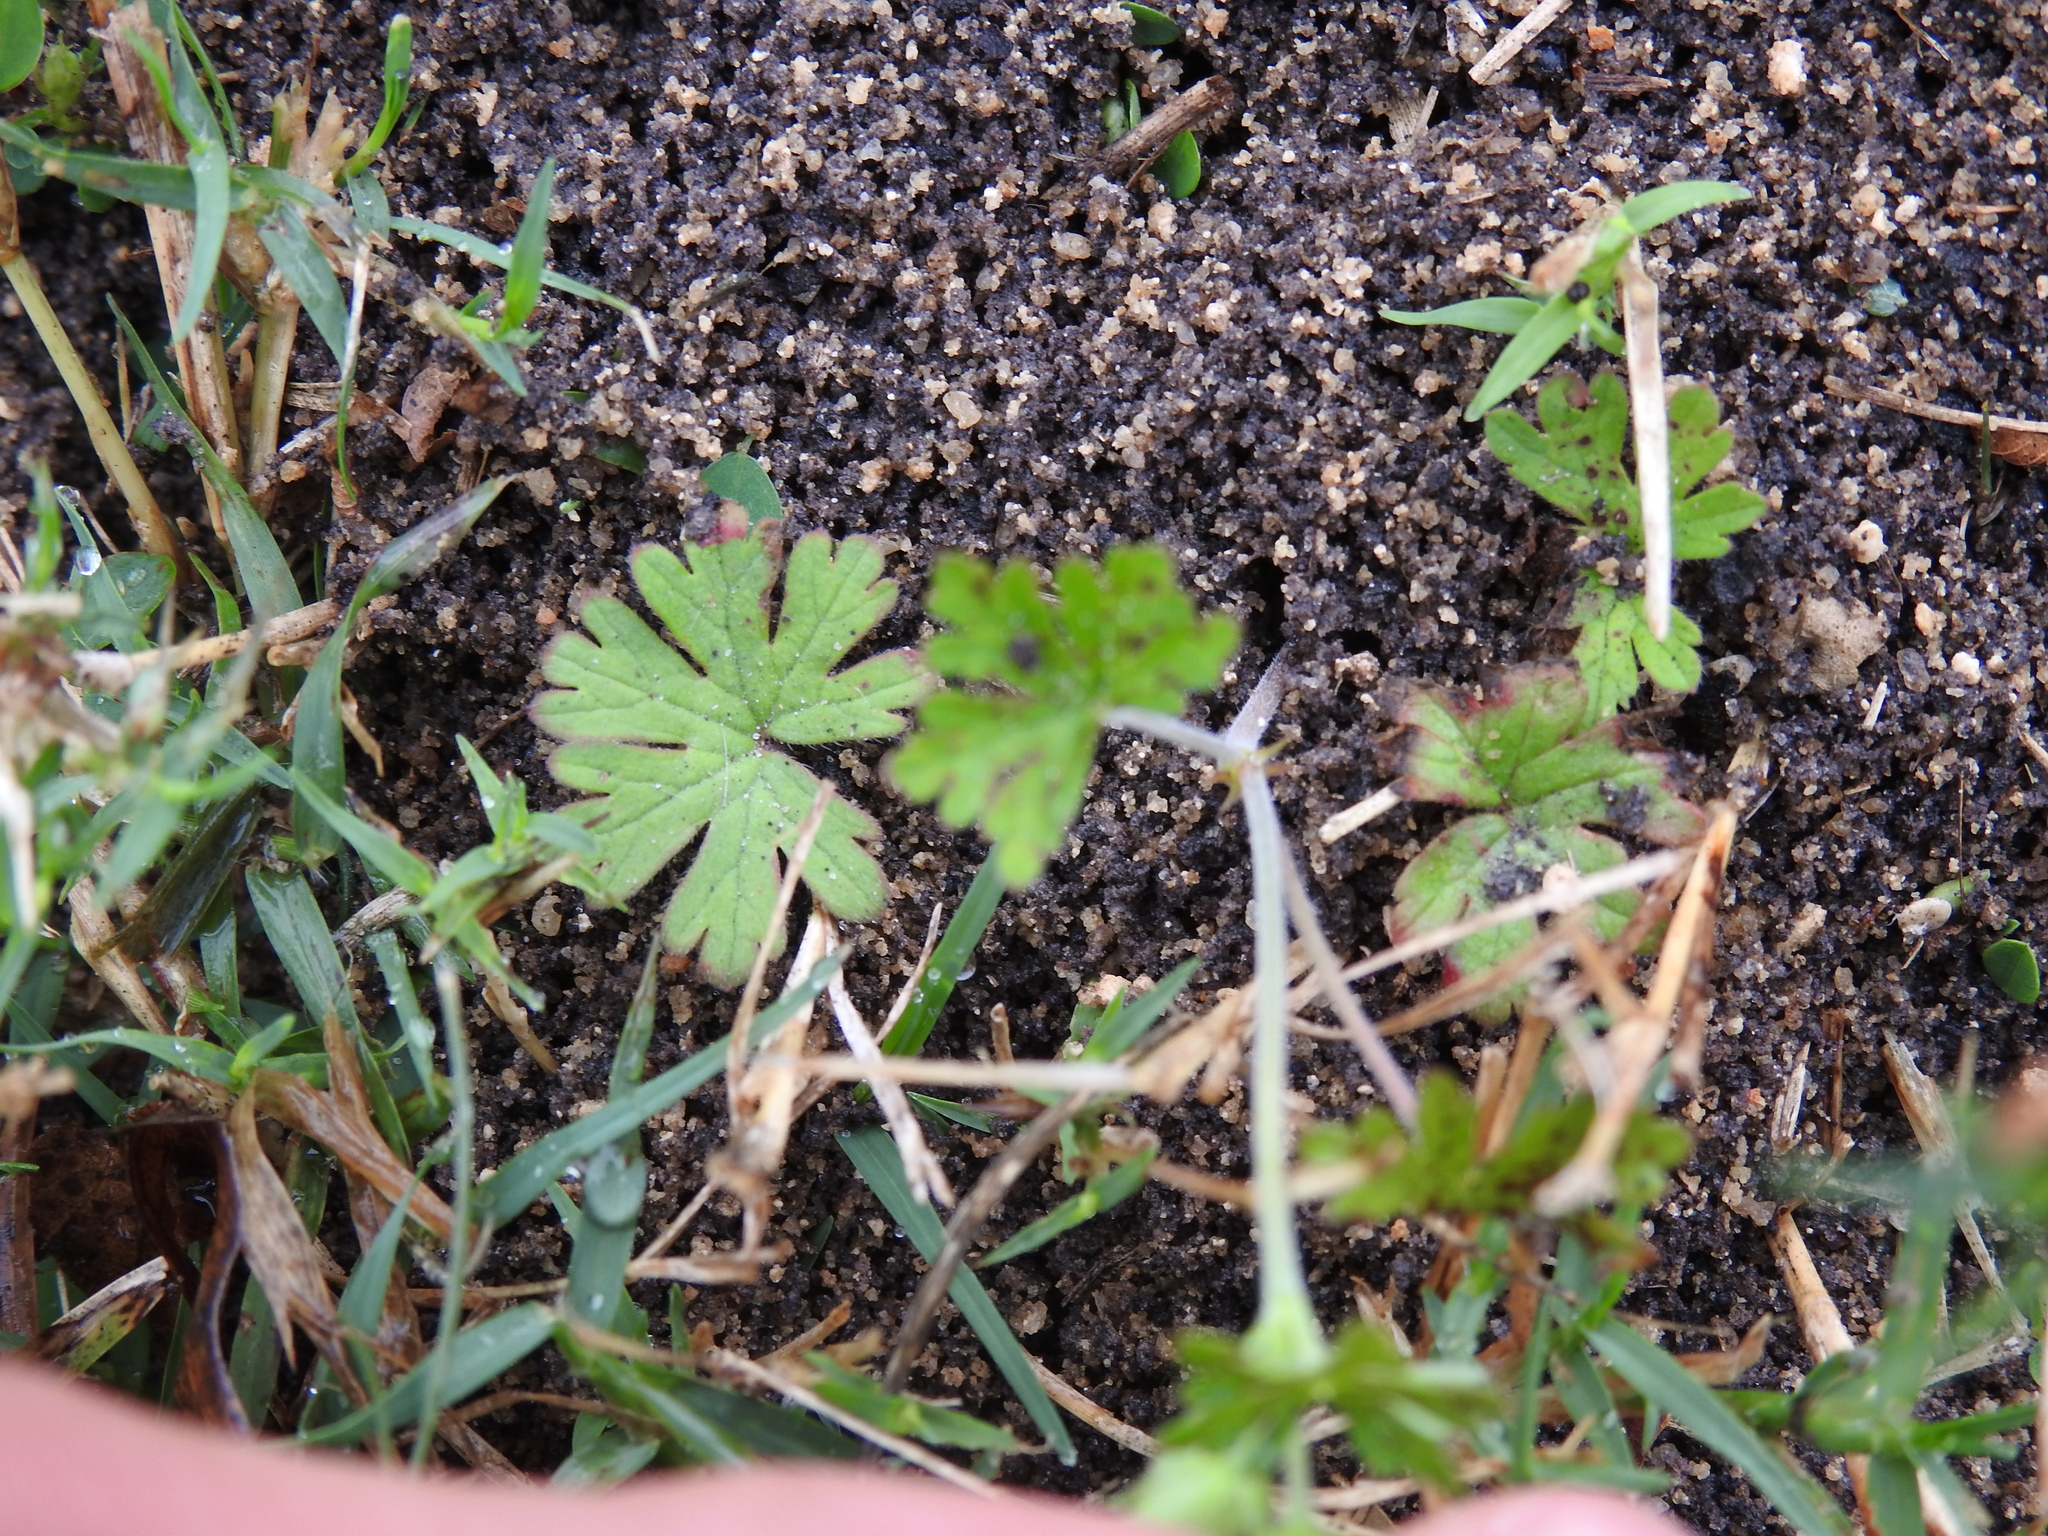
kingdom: Plantae
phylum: Tracheophyta
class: Magnoliopsida
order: Geraniales
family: Geraniaceae
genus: Geranium
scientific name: Geranium carolinianum
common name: Carolina crane's-bill
